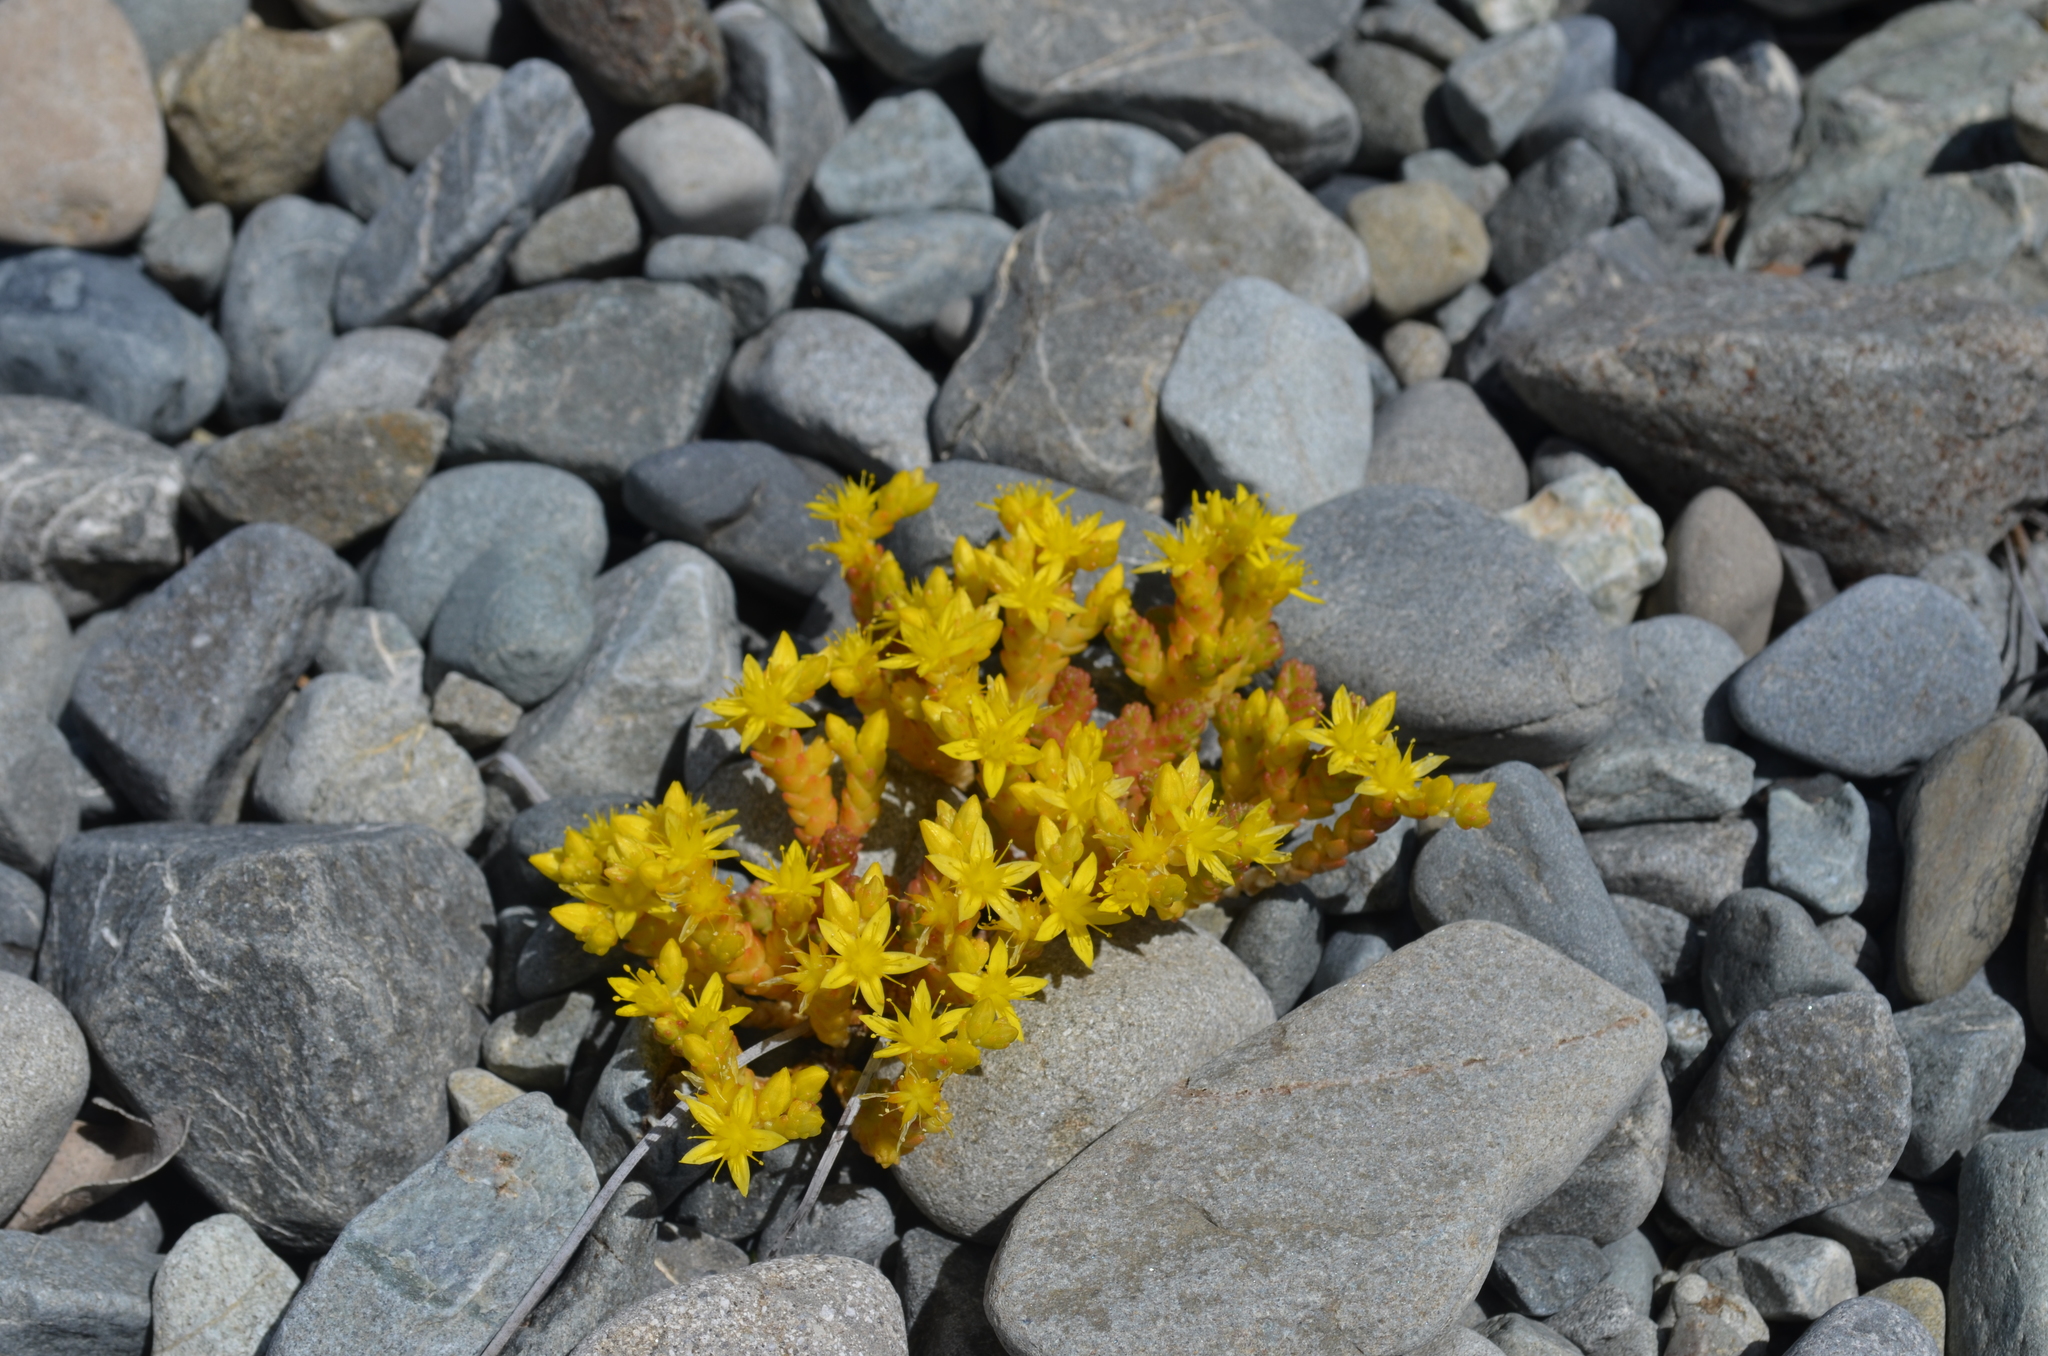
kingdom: Plantae
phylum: Tracheophyta
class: Magnoliopsida
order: Saxifragales
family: Crassulaceae
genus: Sedum
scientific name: Sedum acre
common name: Biting stonecrop
